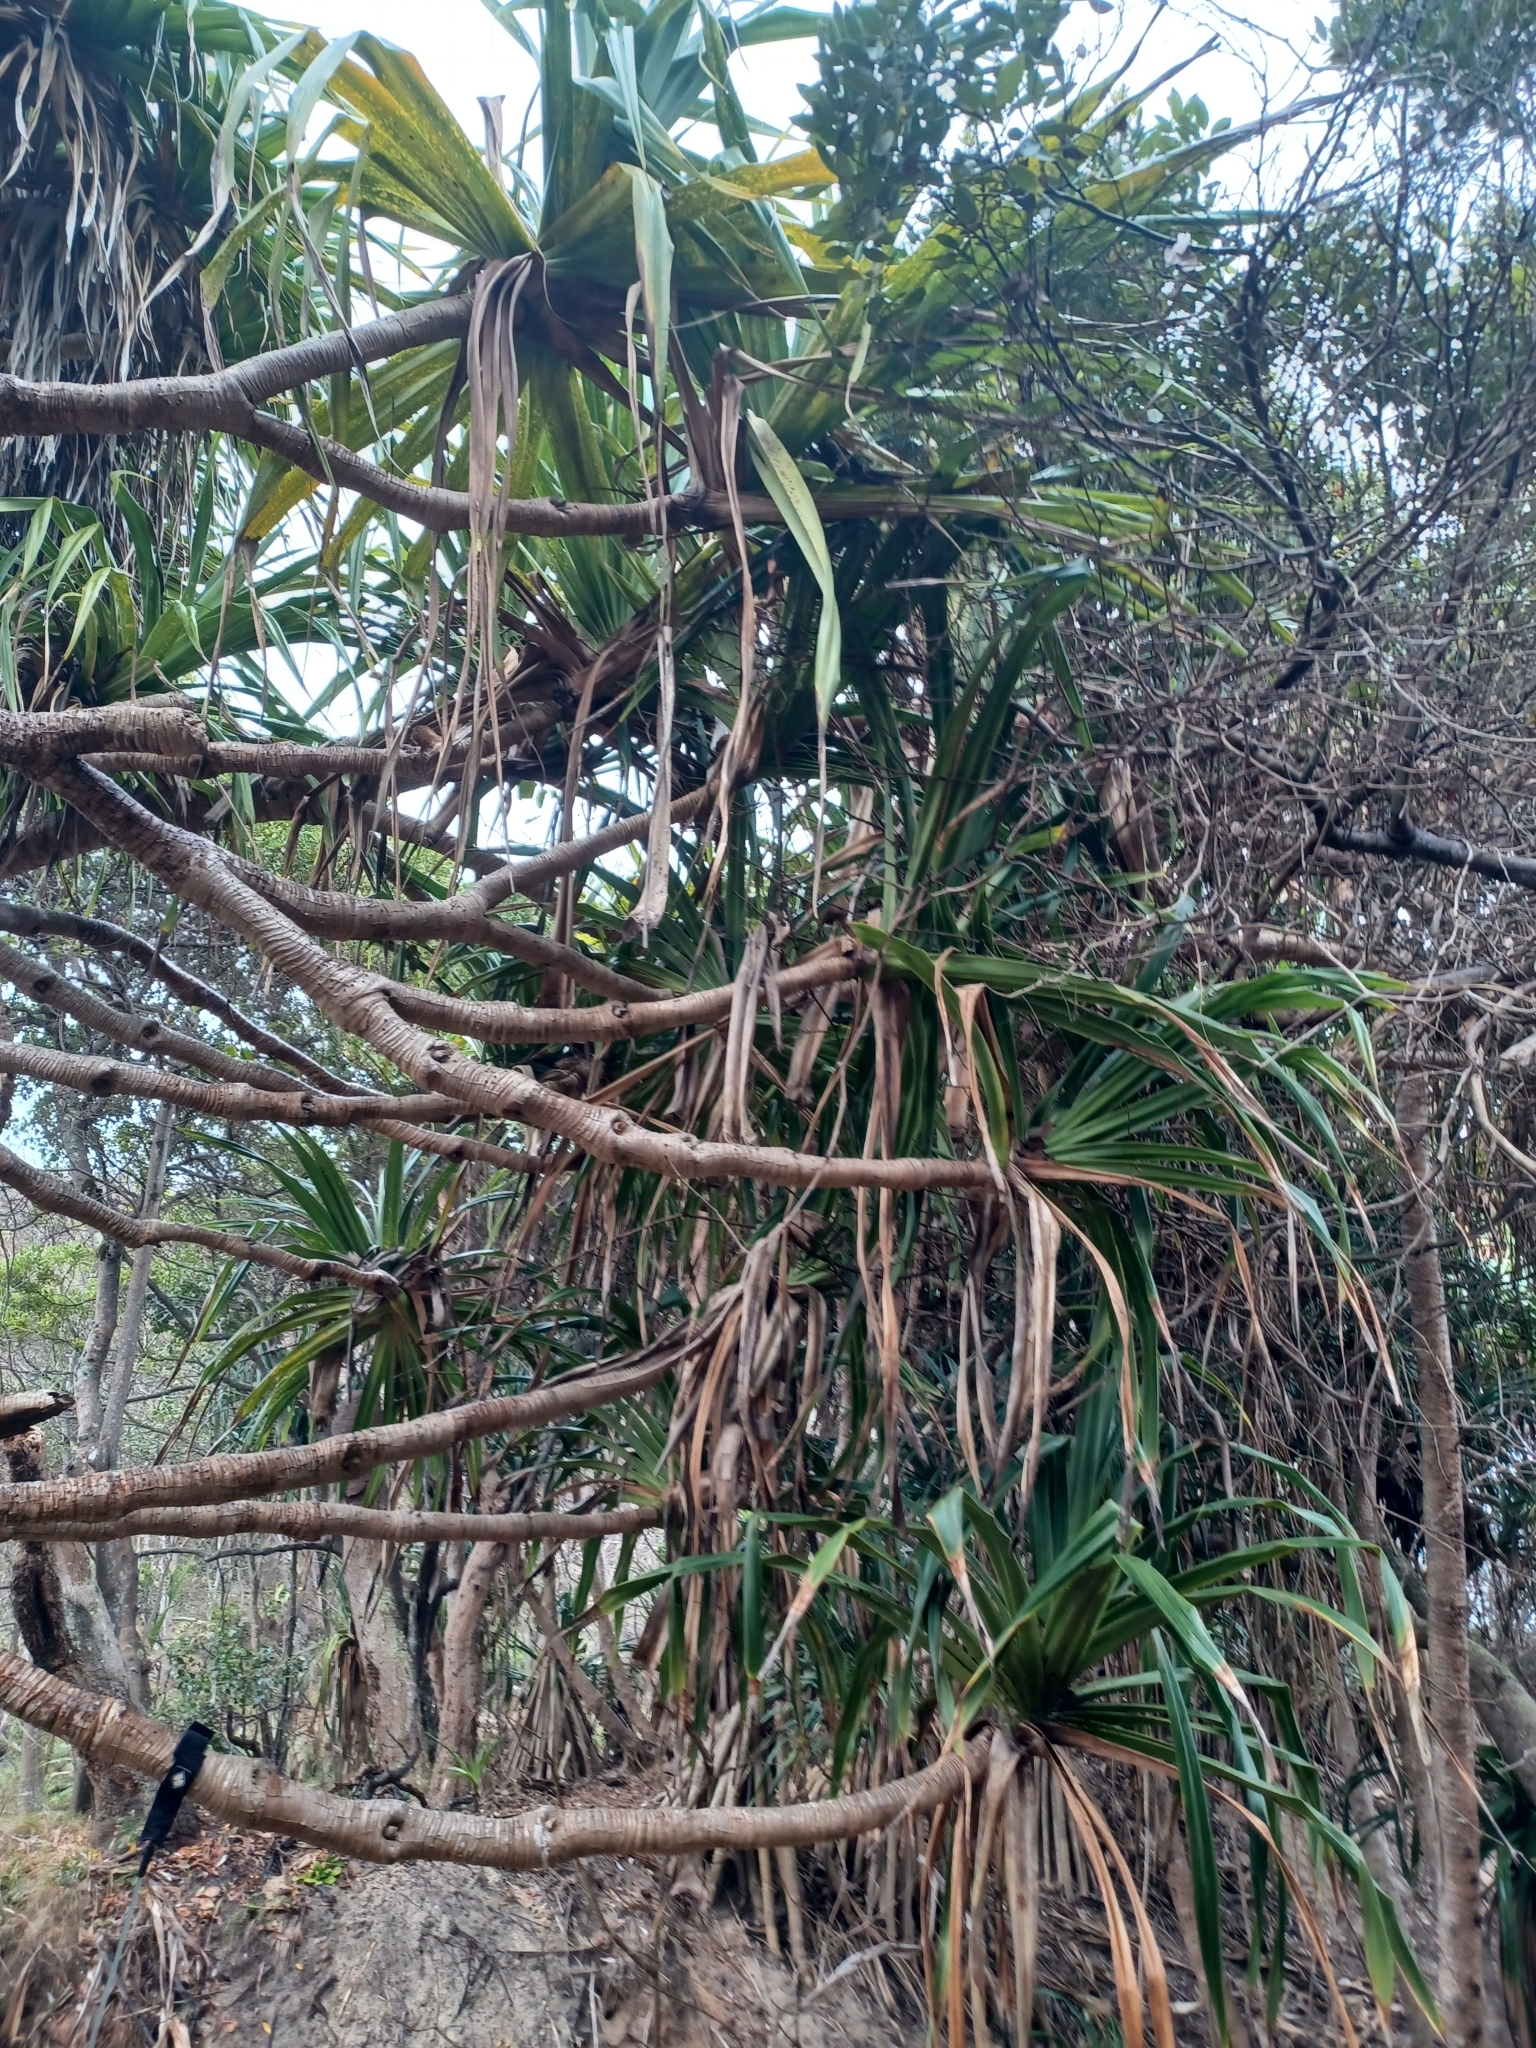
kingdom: Plantae
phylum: Tracheophyta
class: Liliopsida
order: Pandanales
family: Pandanaceae
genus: Pandanus
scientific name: Pandanus tectorius
